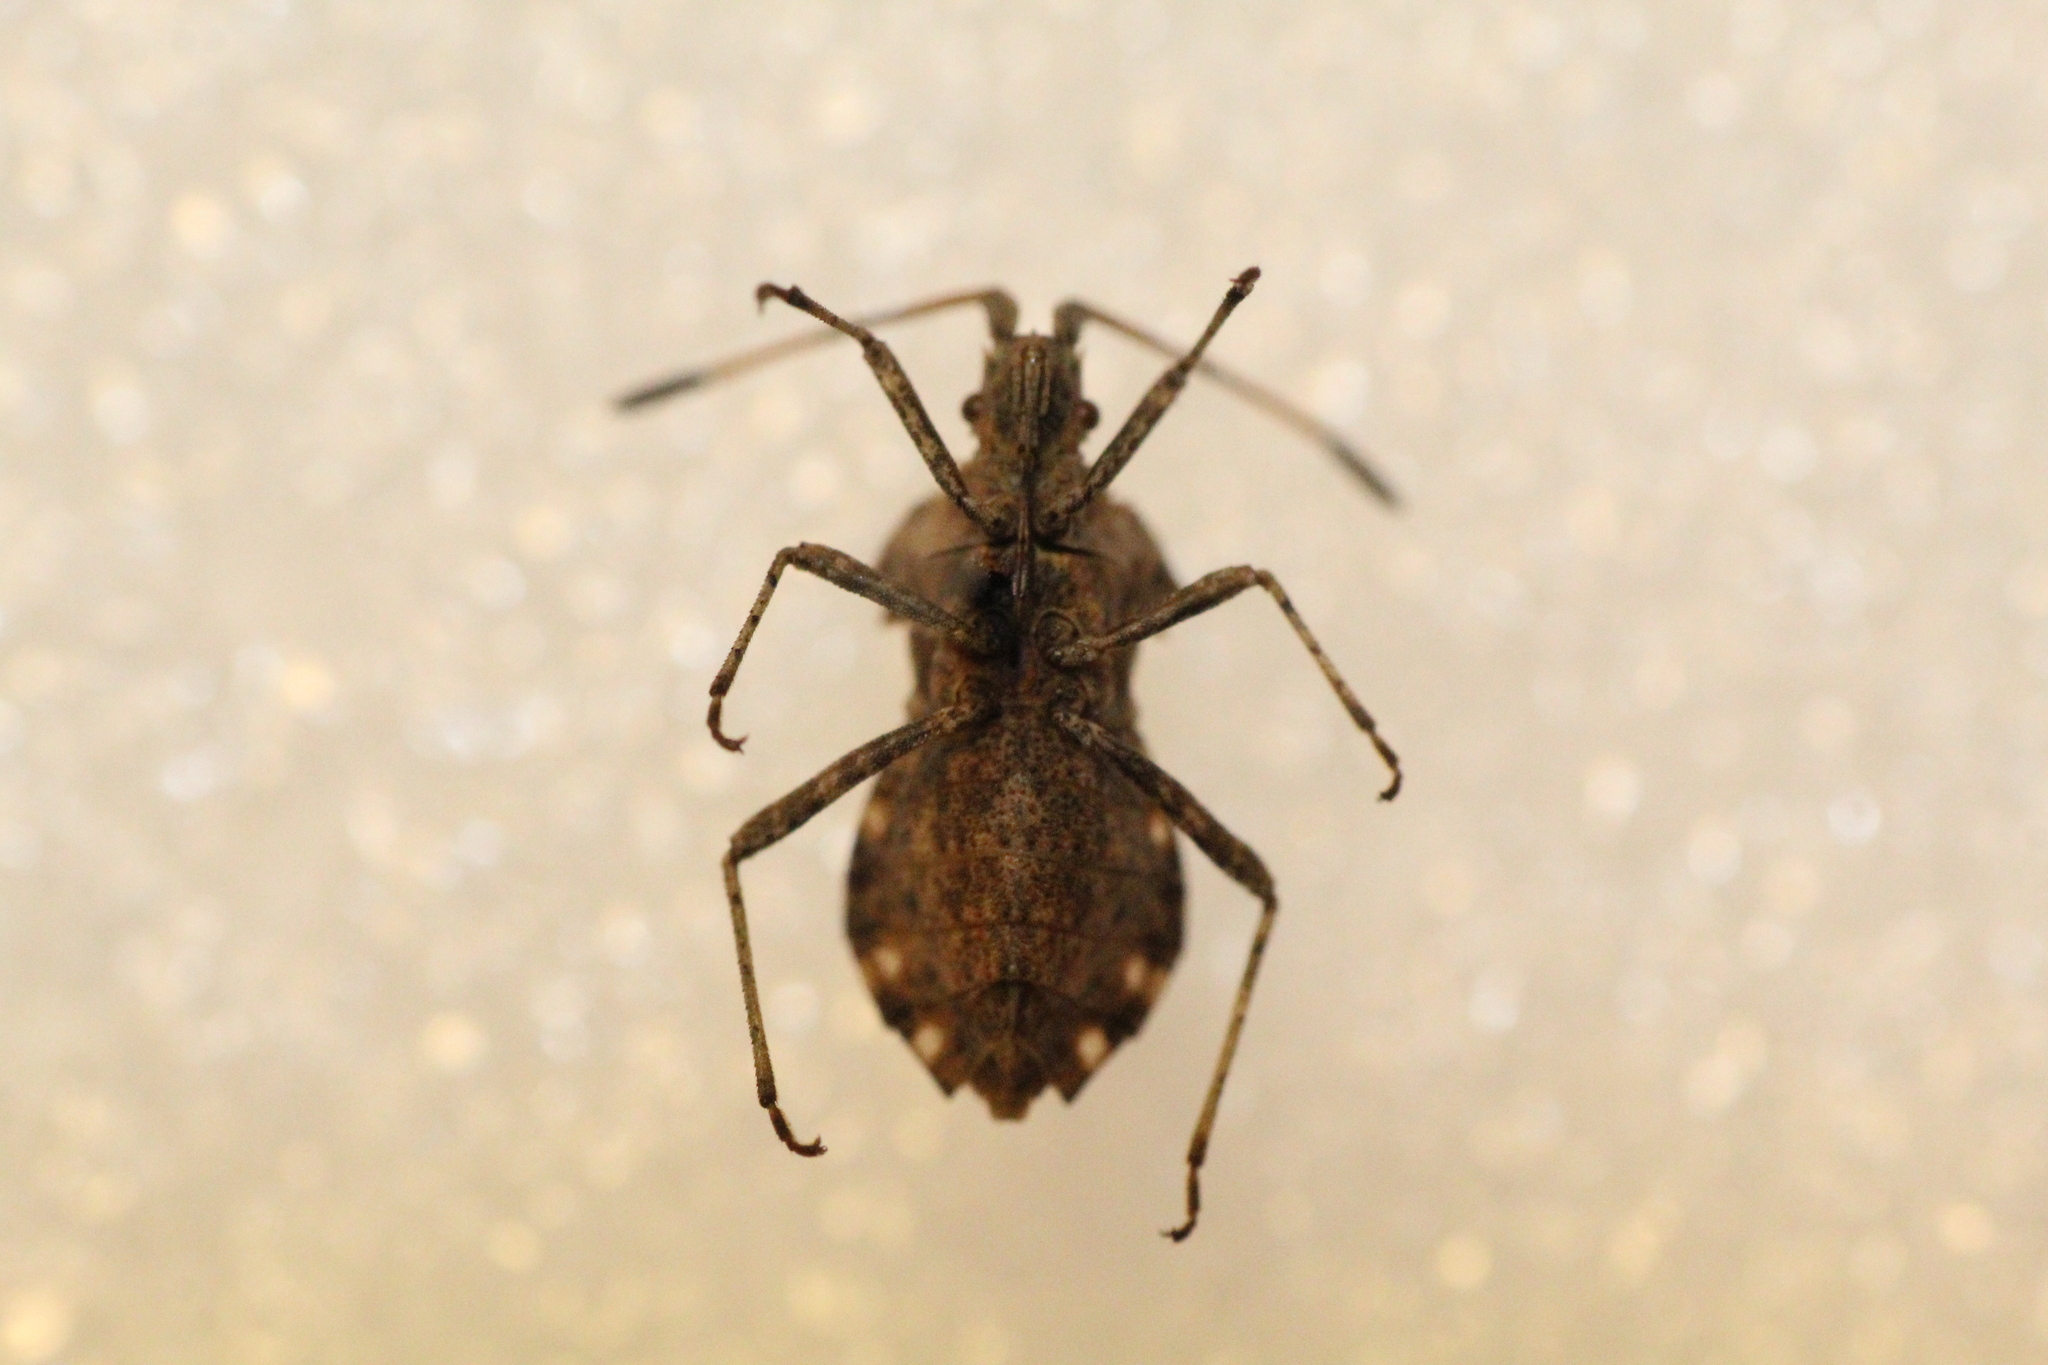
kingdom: Animalia
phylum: Arthropoda
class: Insecta
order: Hemiptera
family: Coreidae
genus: Centrocoris
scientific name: Centrocoris variegatus
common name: Leaf-footed bug
